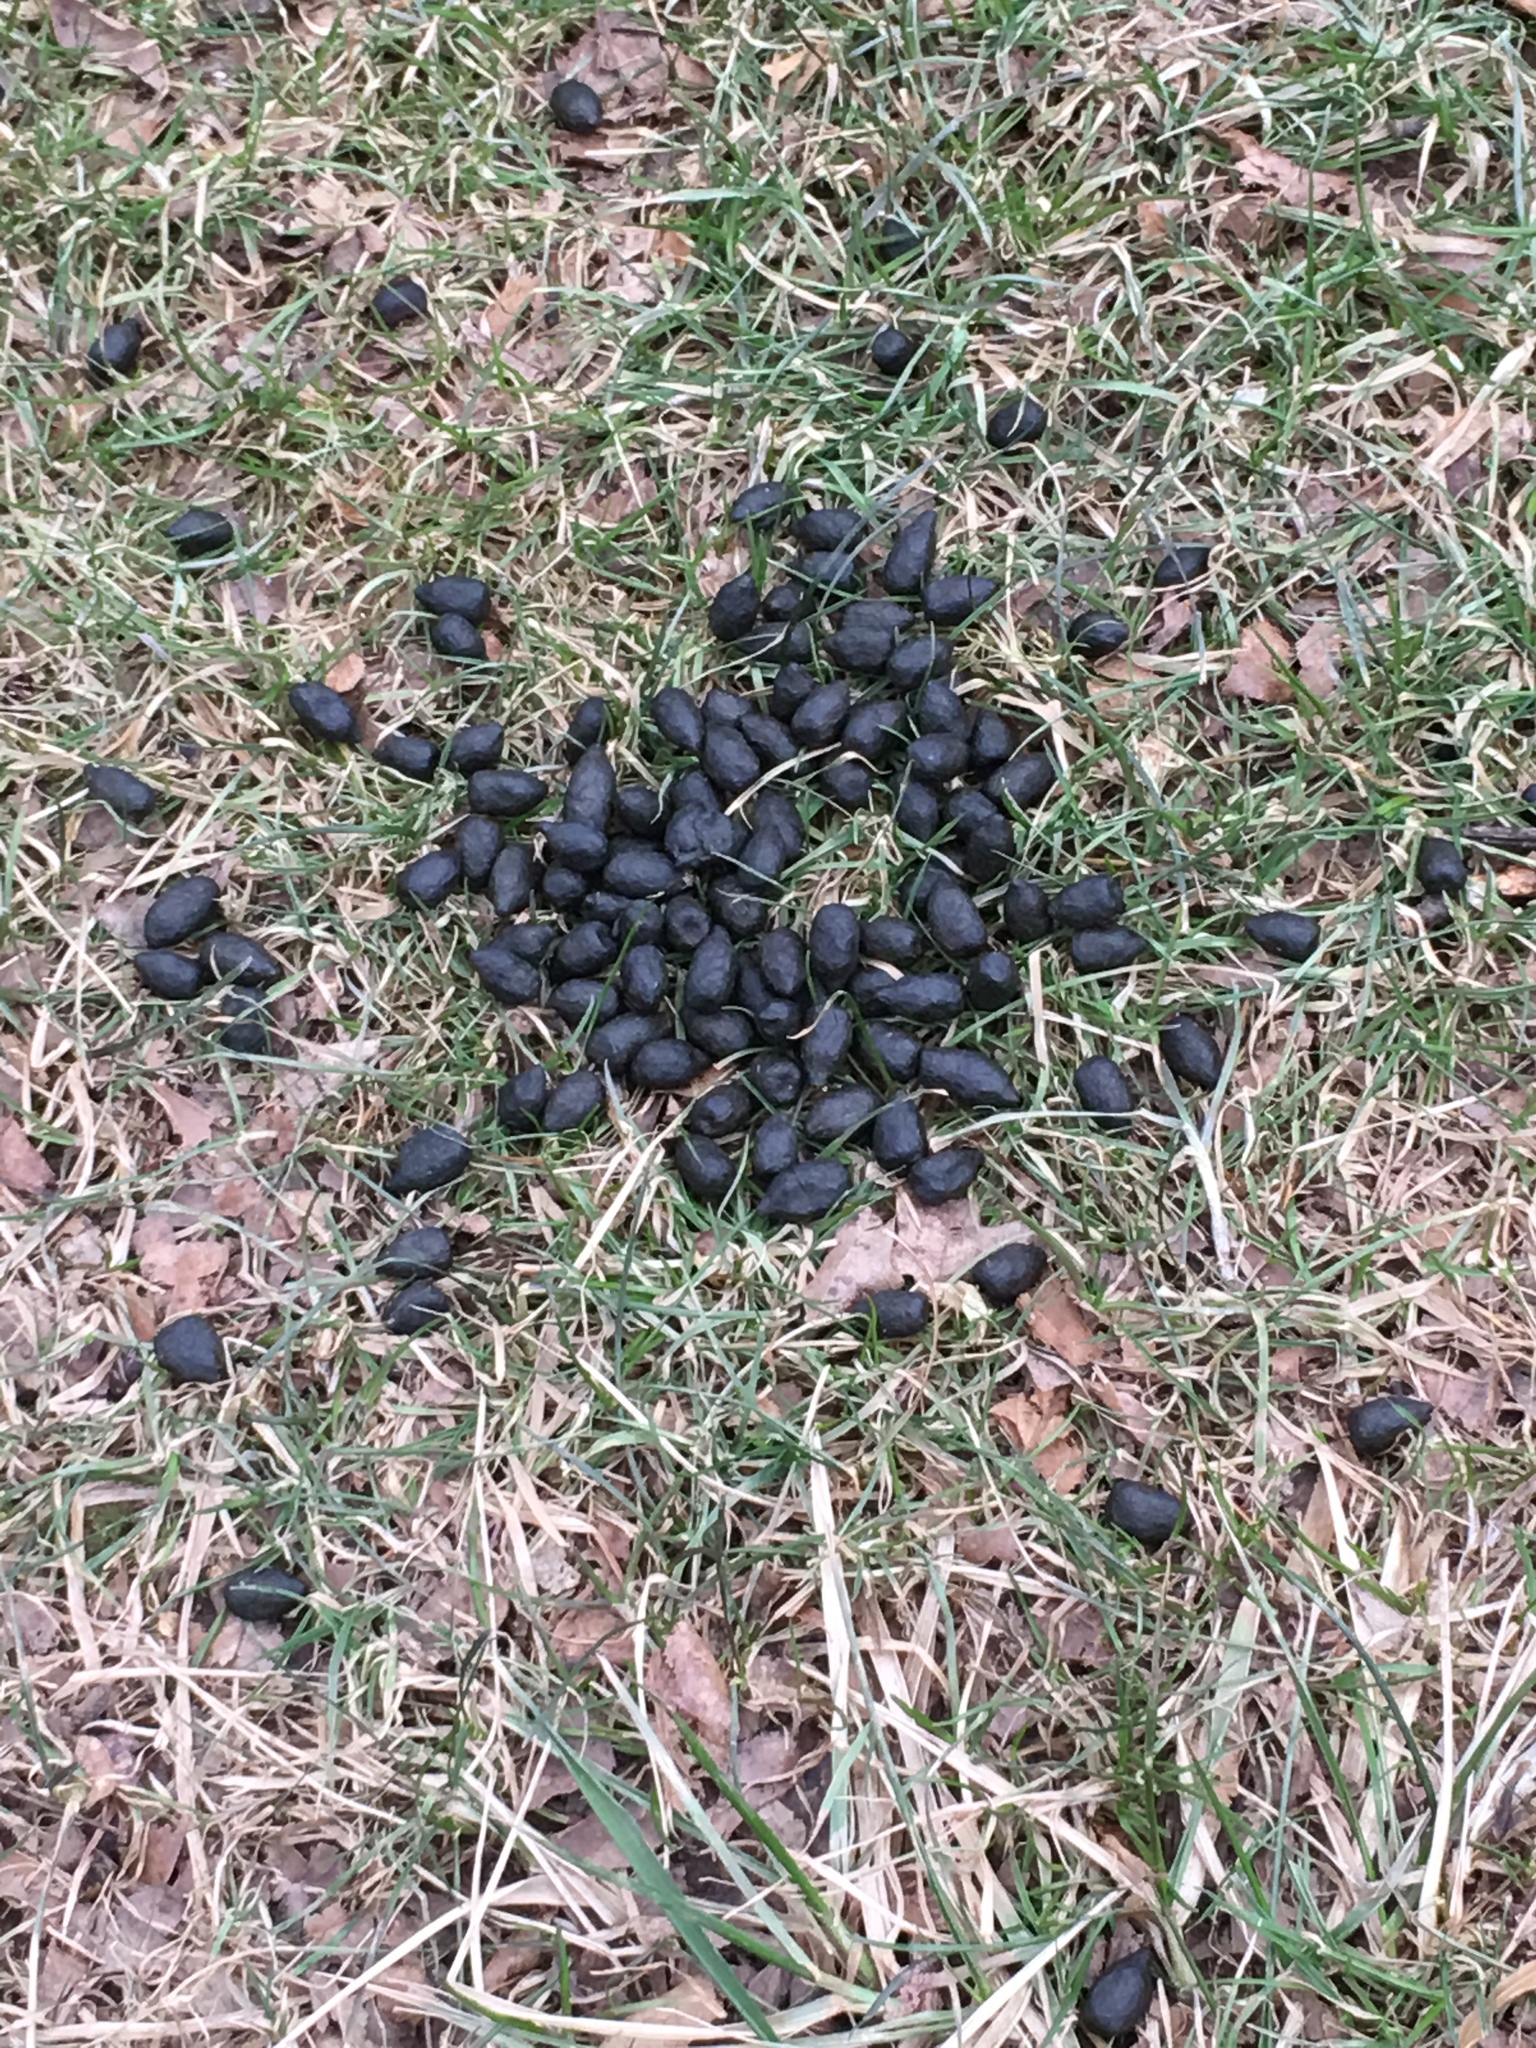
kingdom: Animalia
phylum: Chordata
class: Mammalia
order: Artiodactyla
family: Cervidae
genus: Odocoileus
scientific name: Odocoileus virginianus
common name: White-tailed deer
